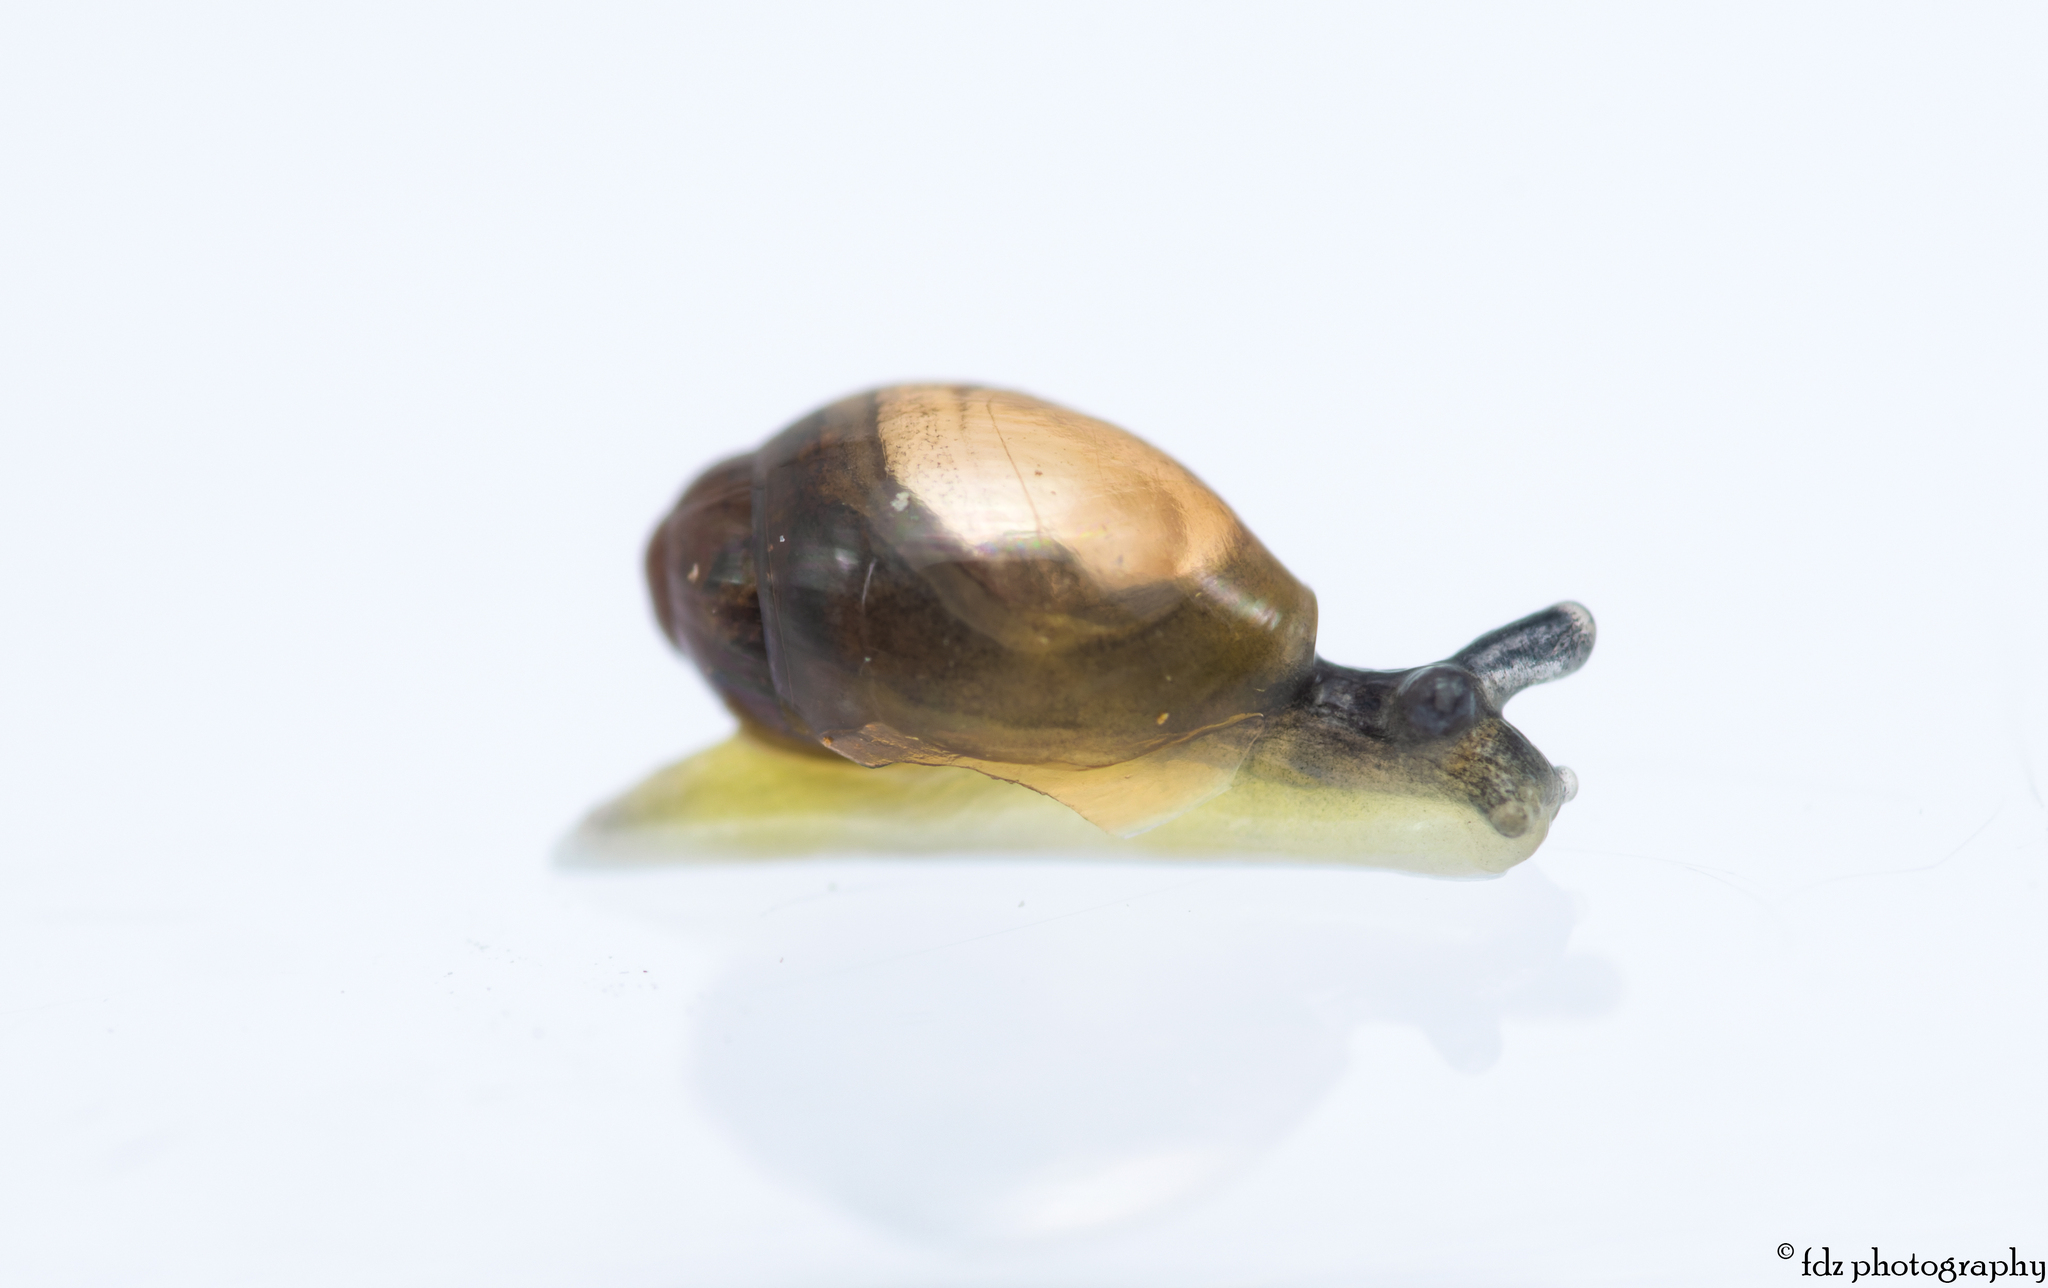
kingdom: Animalia
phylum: Mollusca
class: Gastropoda
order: Stylommatophora
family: Ferussaciidae
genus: Ferussacia
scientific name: Ferussacia folliculum
